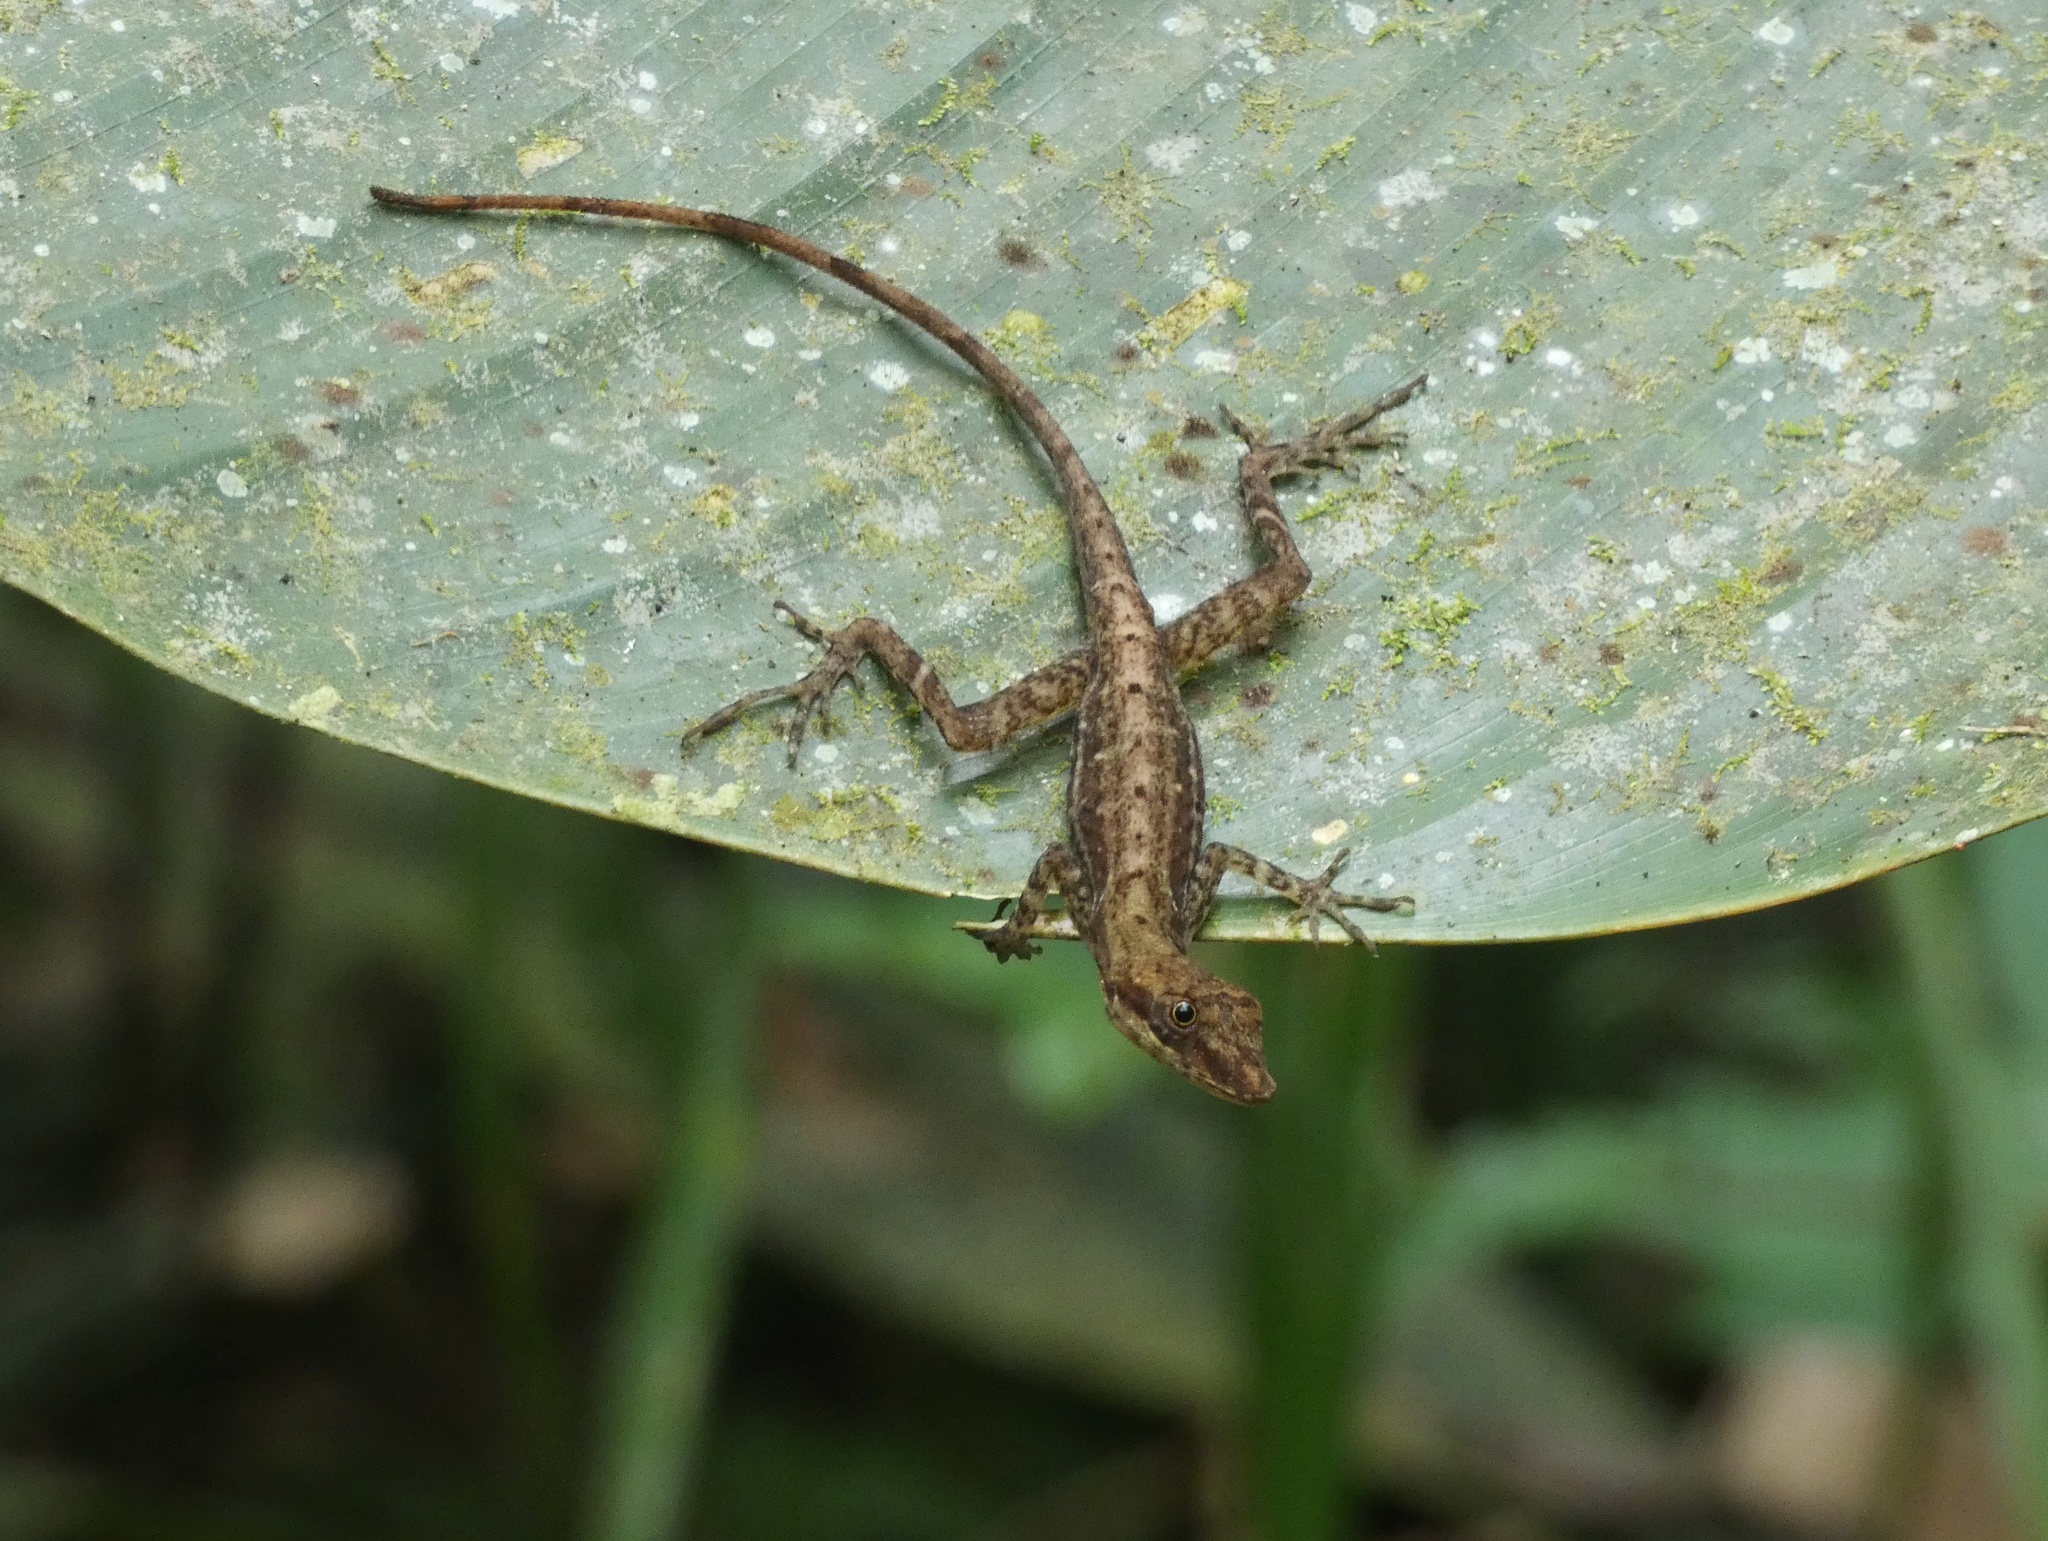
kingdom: Animalia
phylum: Chordata
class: Squamata
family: Dactyloidae
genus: Anolis
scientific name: Anolis apletophallus
